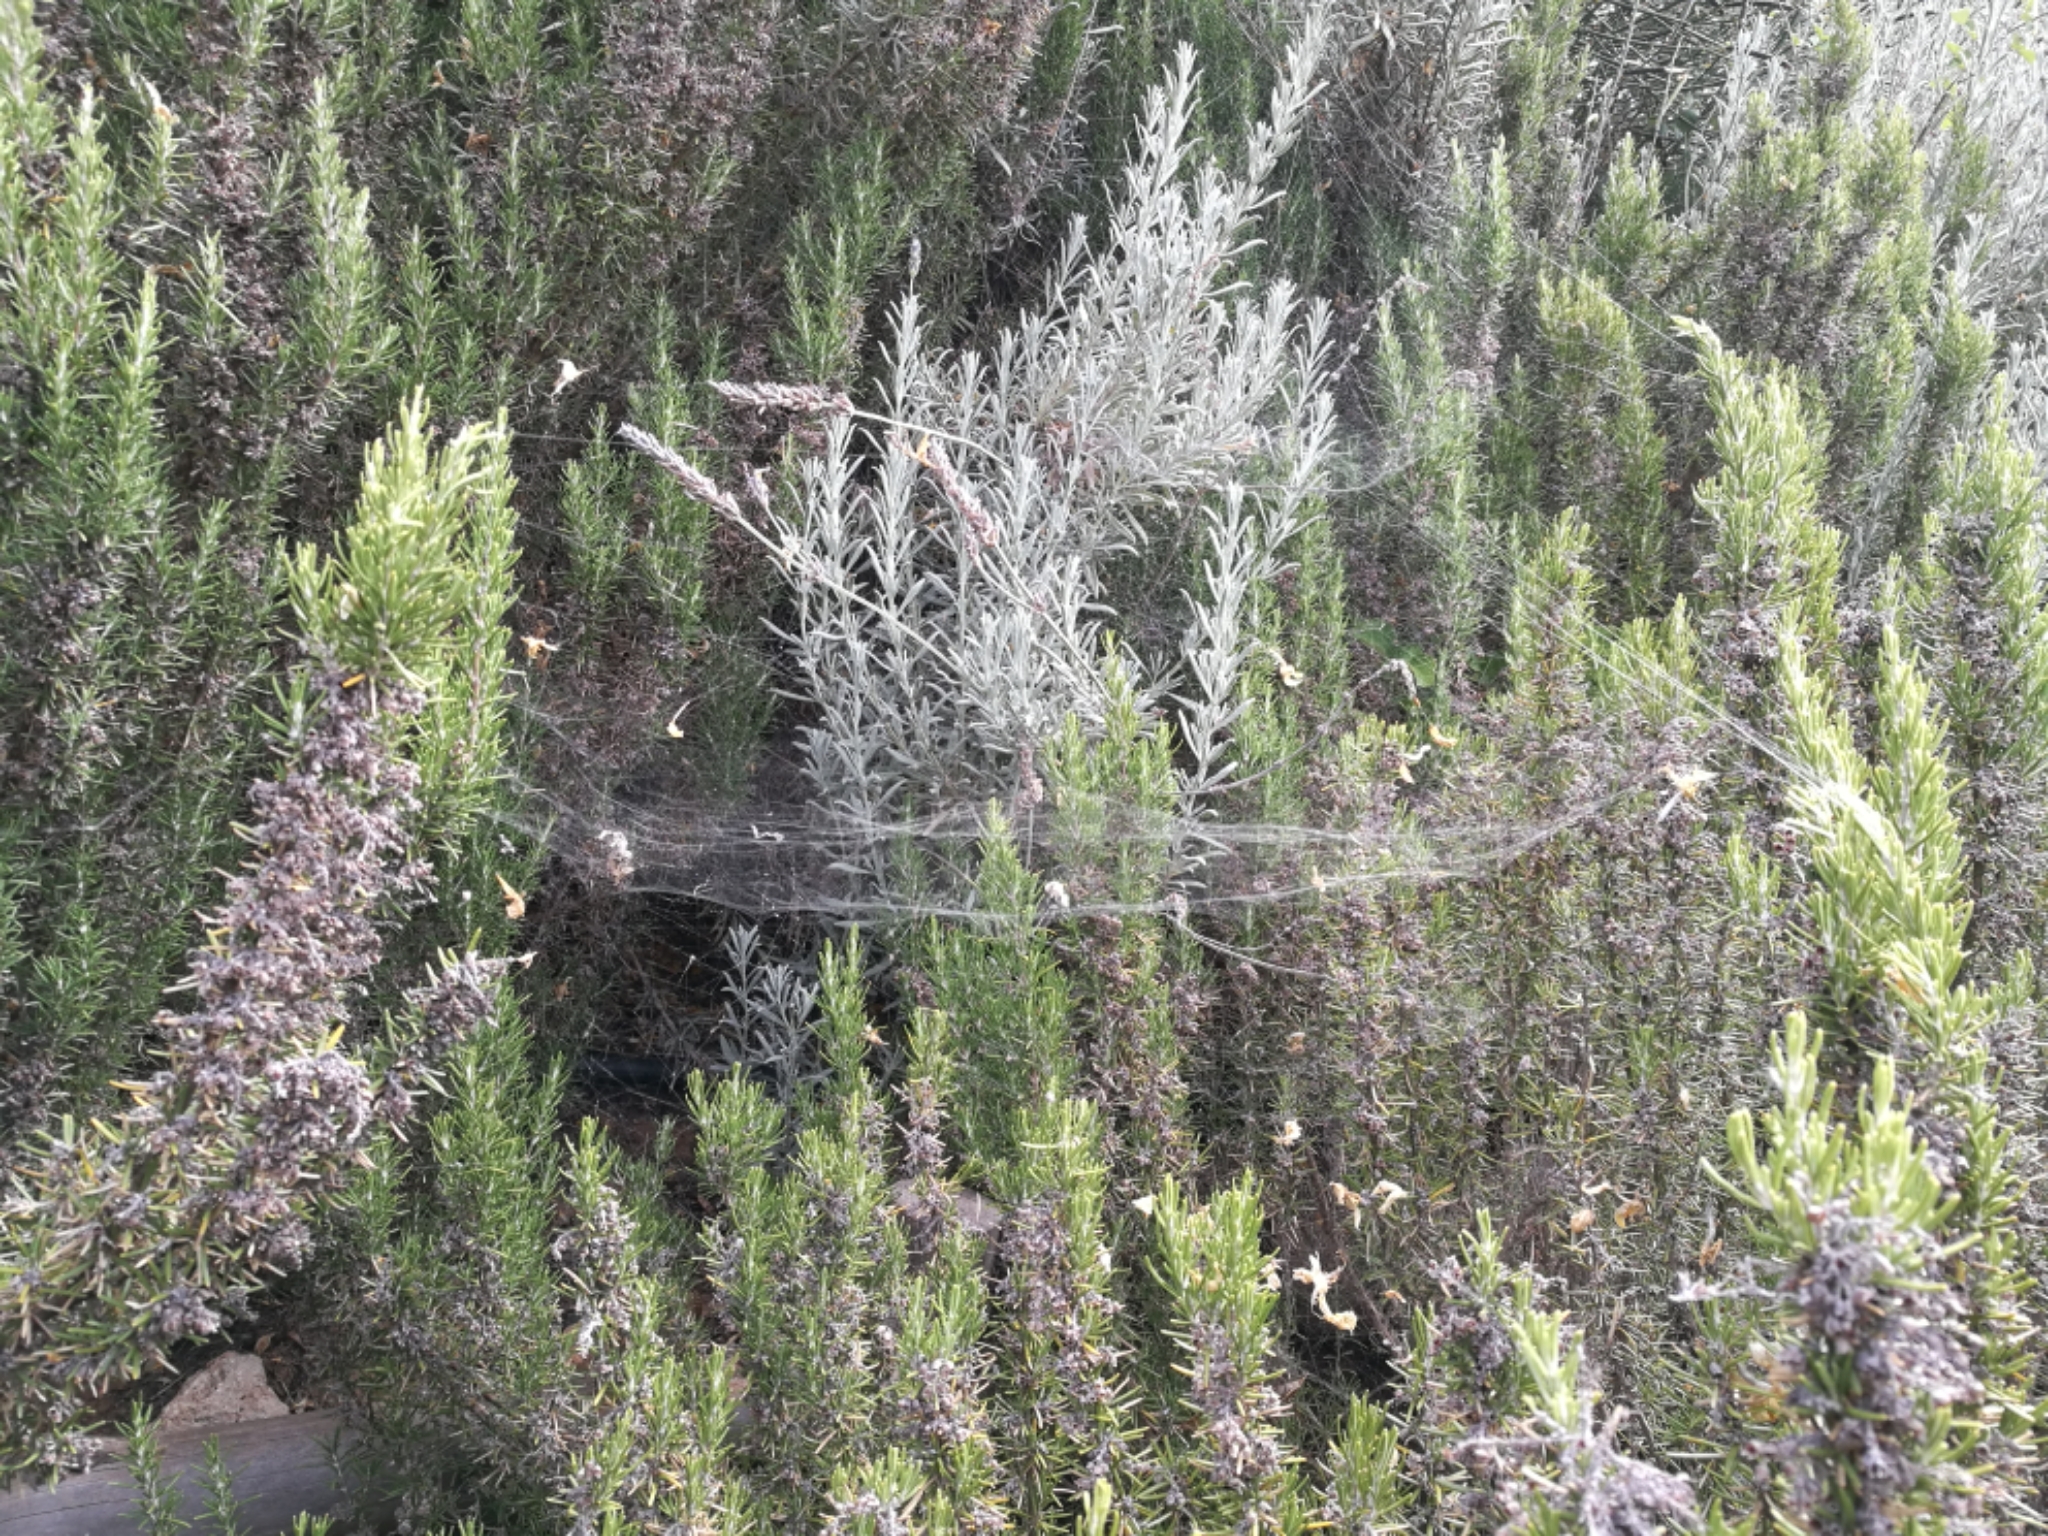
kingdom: Animalia
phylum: Arthropoda
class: Arachnida
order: Araneae
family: Araneidae
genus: Cyrtophora
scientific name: Cyrtophora citricola
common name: Orb weavers
